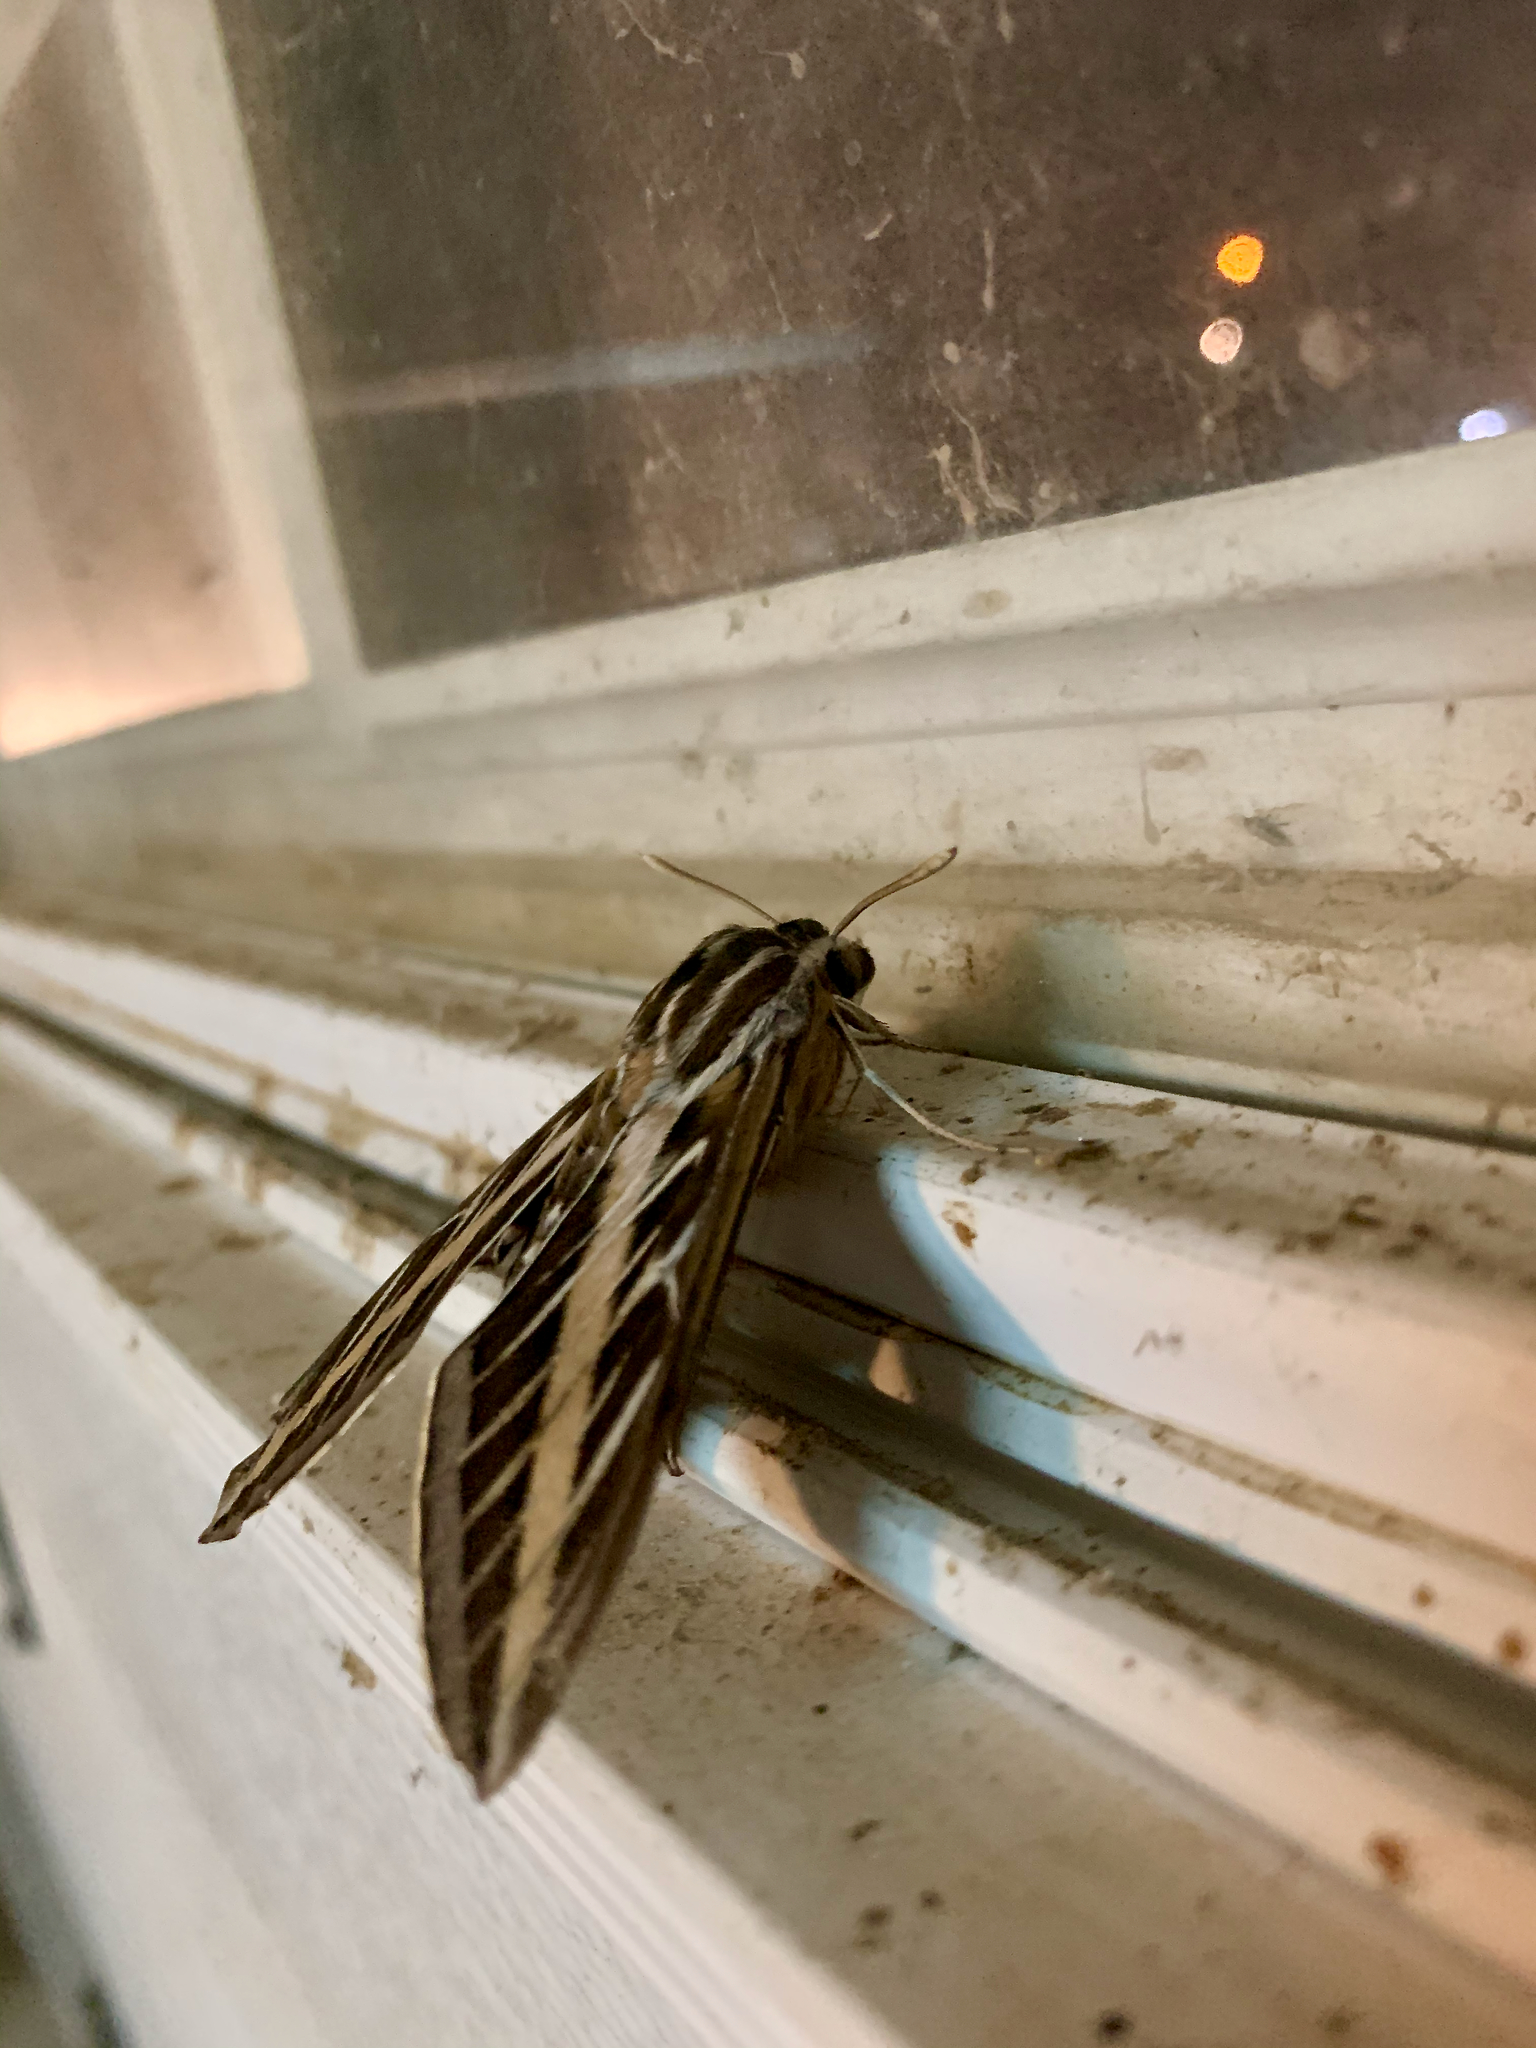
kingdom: Animalia
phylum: Arthropoda
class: Insecta
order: Lepidoptera
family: Sphingidae
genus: Hyles
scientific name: Hyles lineata
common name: White-lined sphinx
